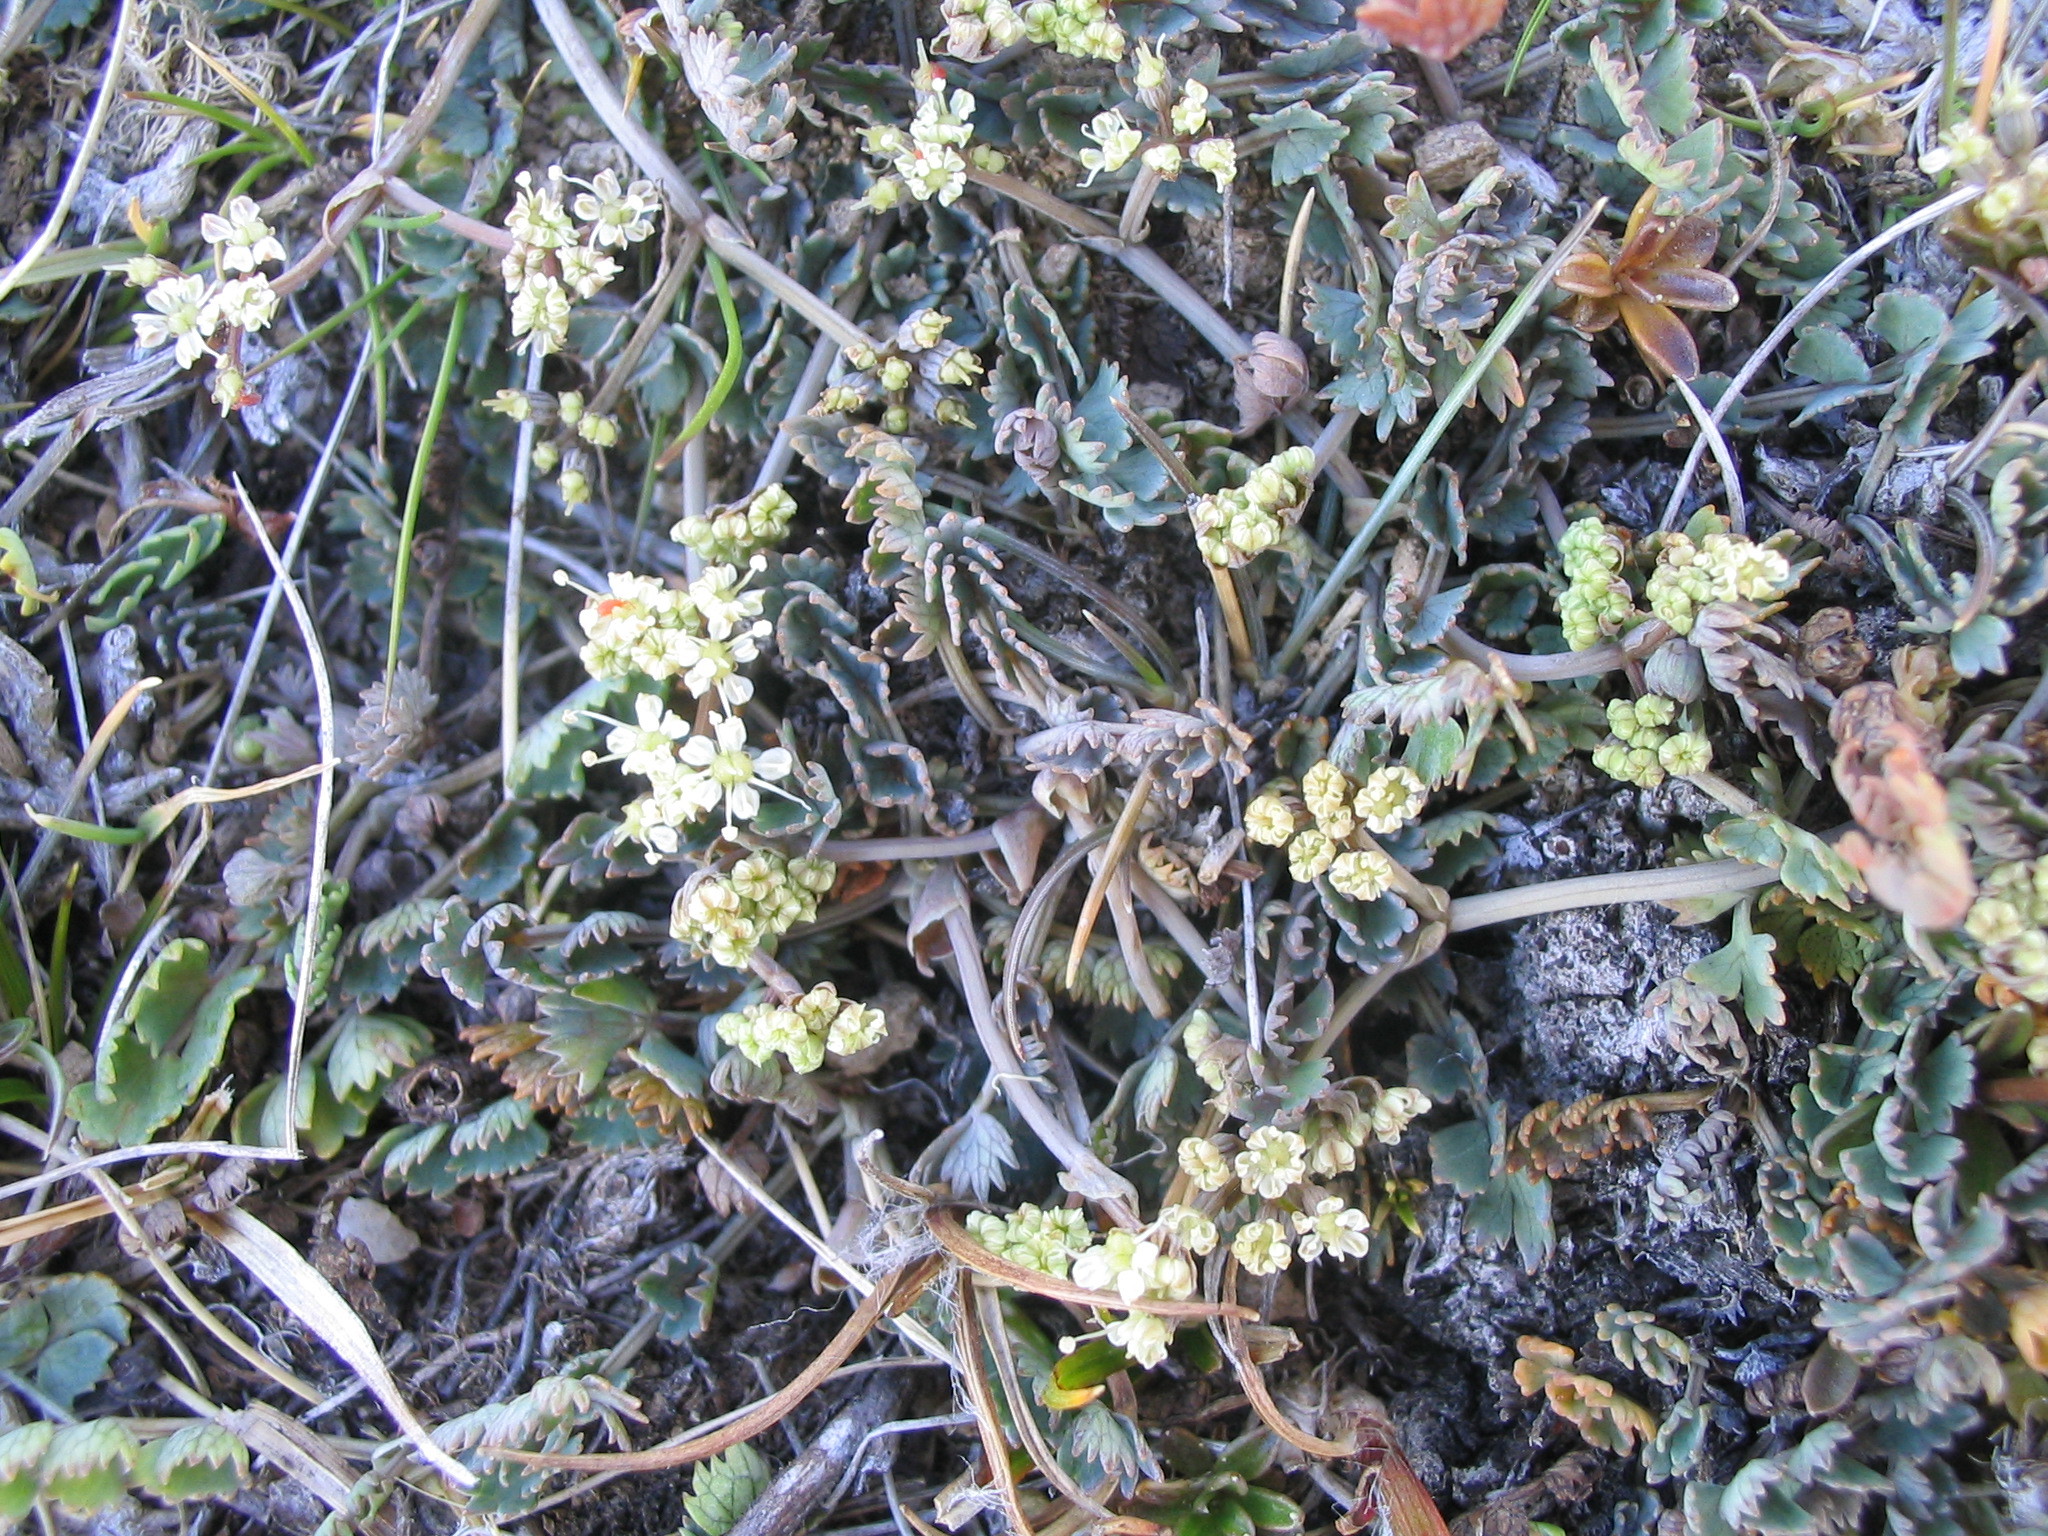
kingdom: Plantae
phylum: Tracheophyta
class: Magnoliopsida
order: Apiales
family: Apiaceae
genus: Gingidia
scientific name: Gingidia baxterae
